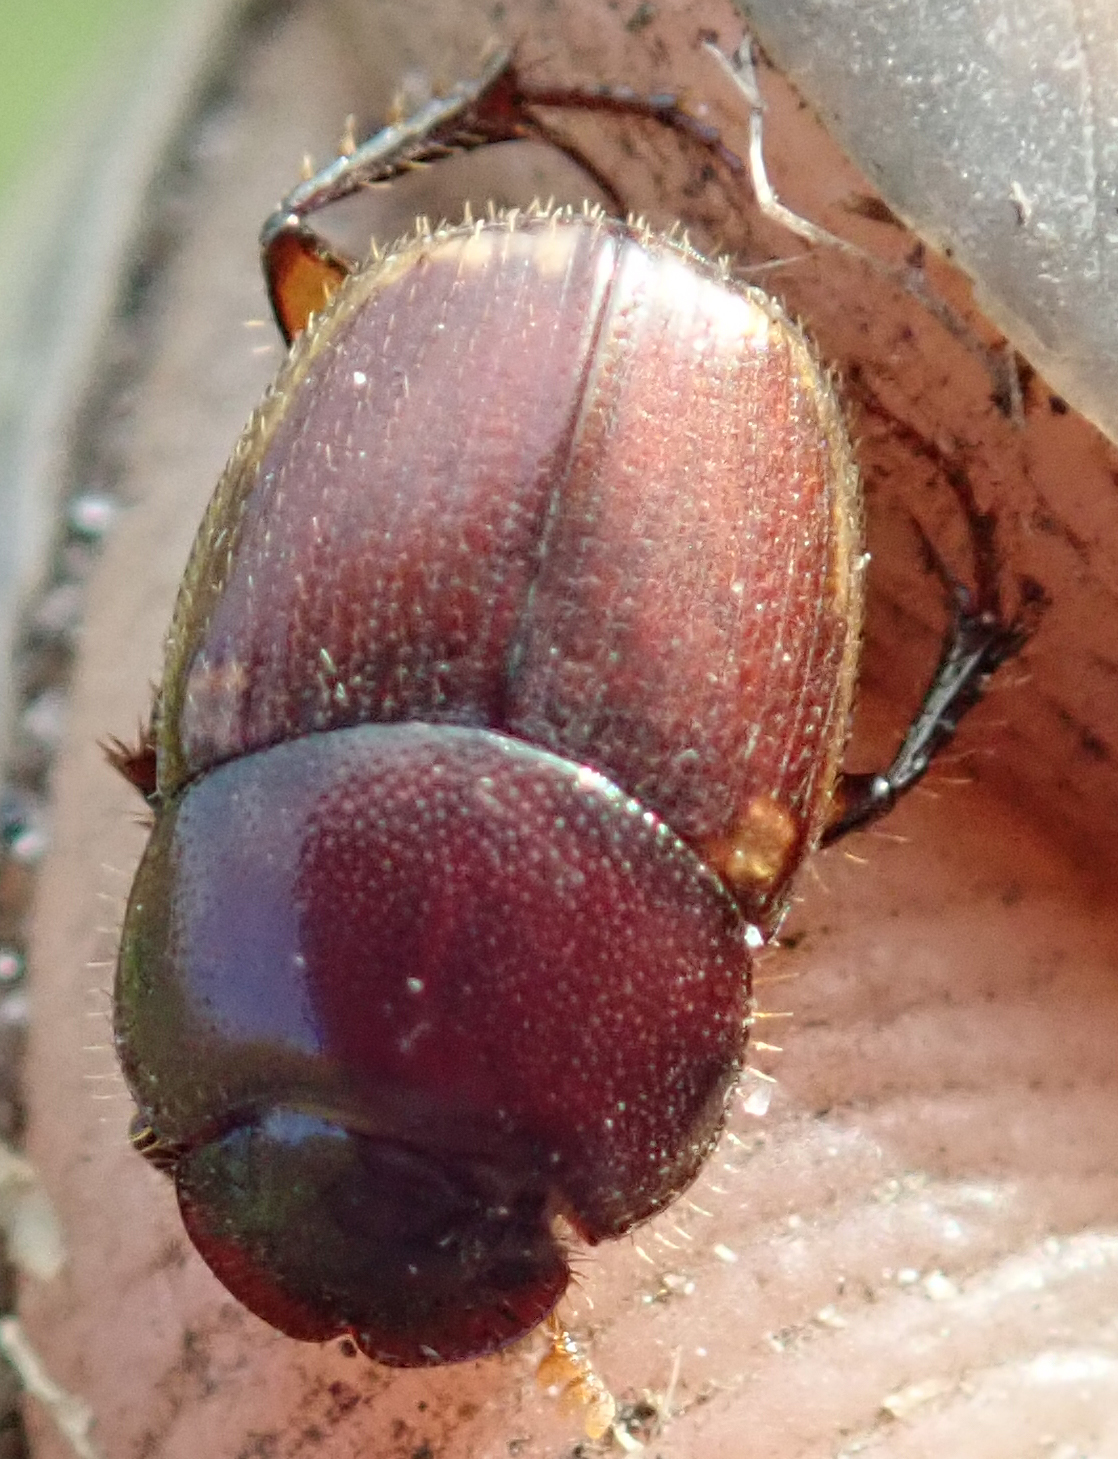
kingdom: Animalia
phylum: Arthropoda
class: Insecta
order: Coleoptera
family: Scarabaeidae
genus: Onthophagus
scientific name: Onthophagus vinctus
